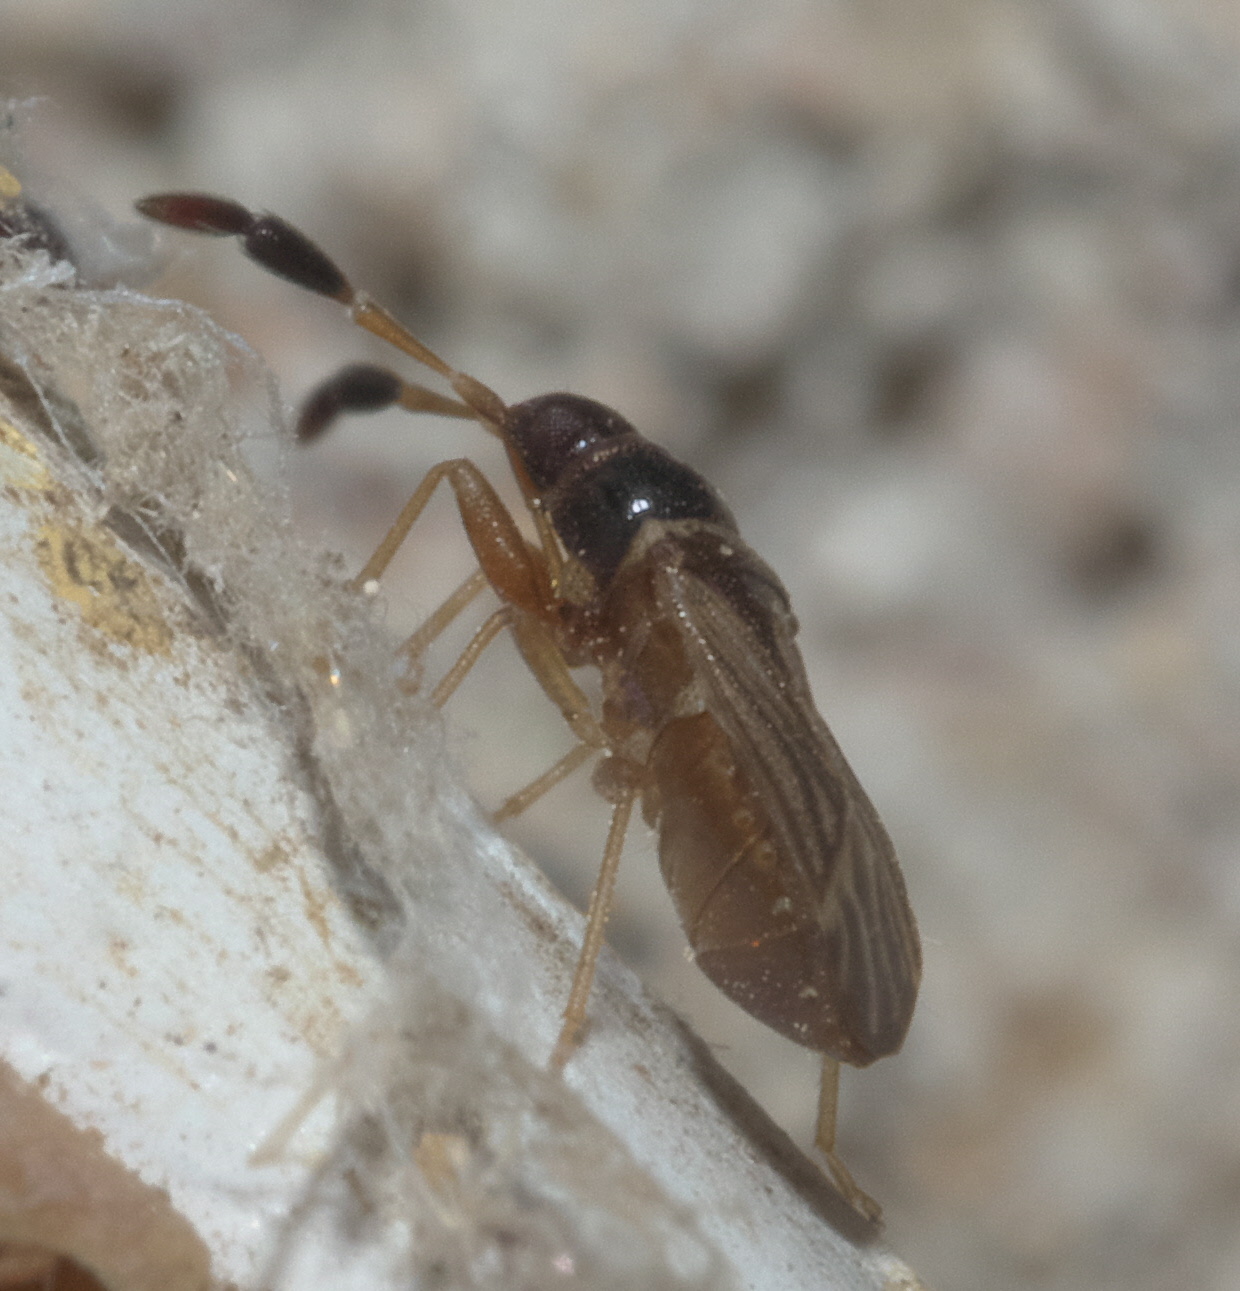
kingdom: Animalia
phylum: Arthropoda
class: Insecta
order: Hemiptera
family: Rhyparochromidae
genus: Ptochiomera
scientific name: Ptochiomera nodosa
